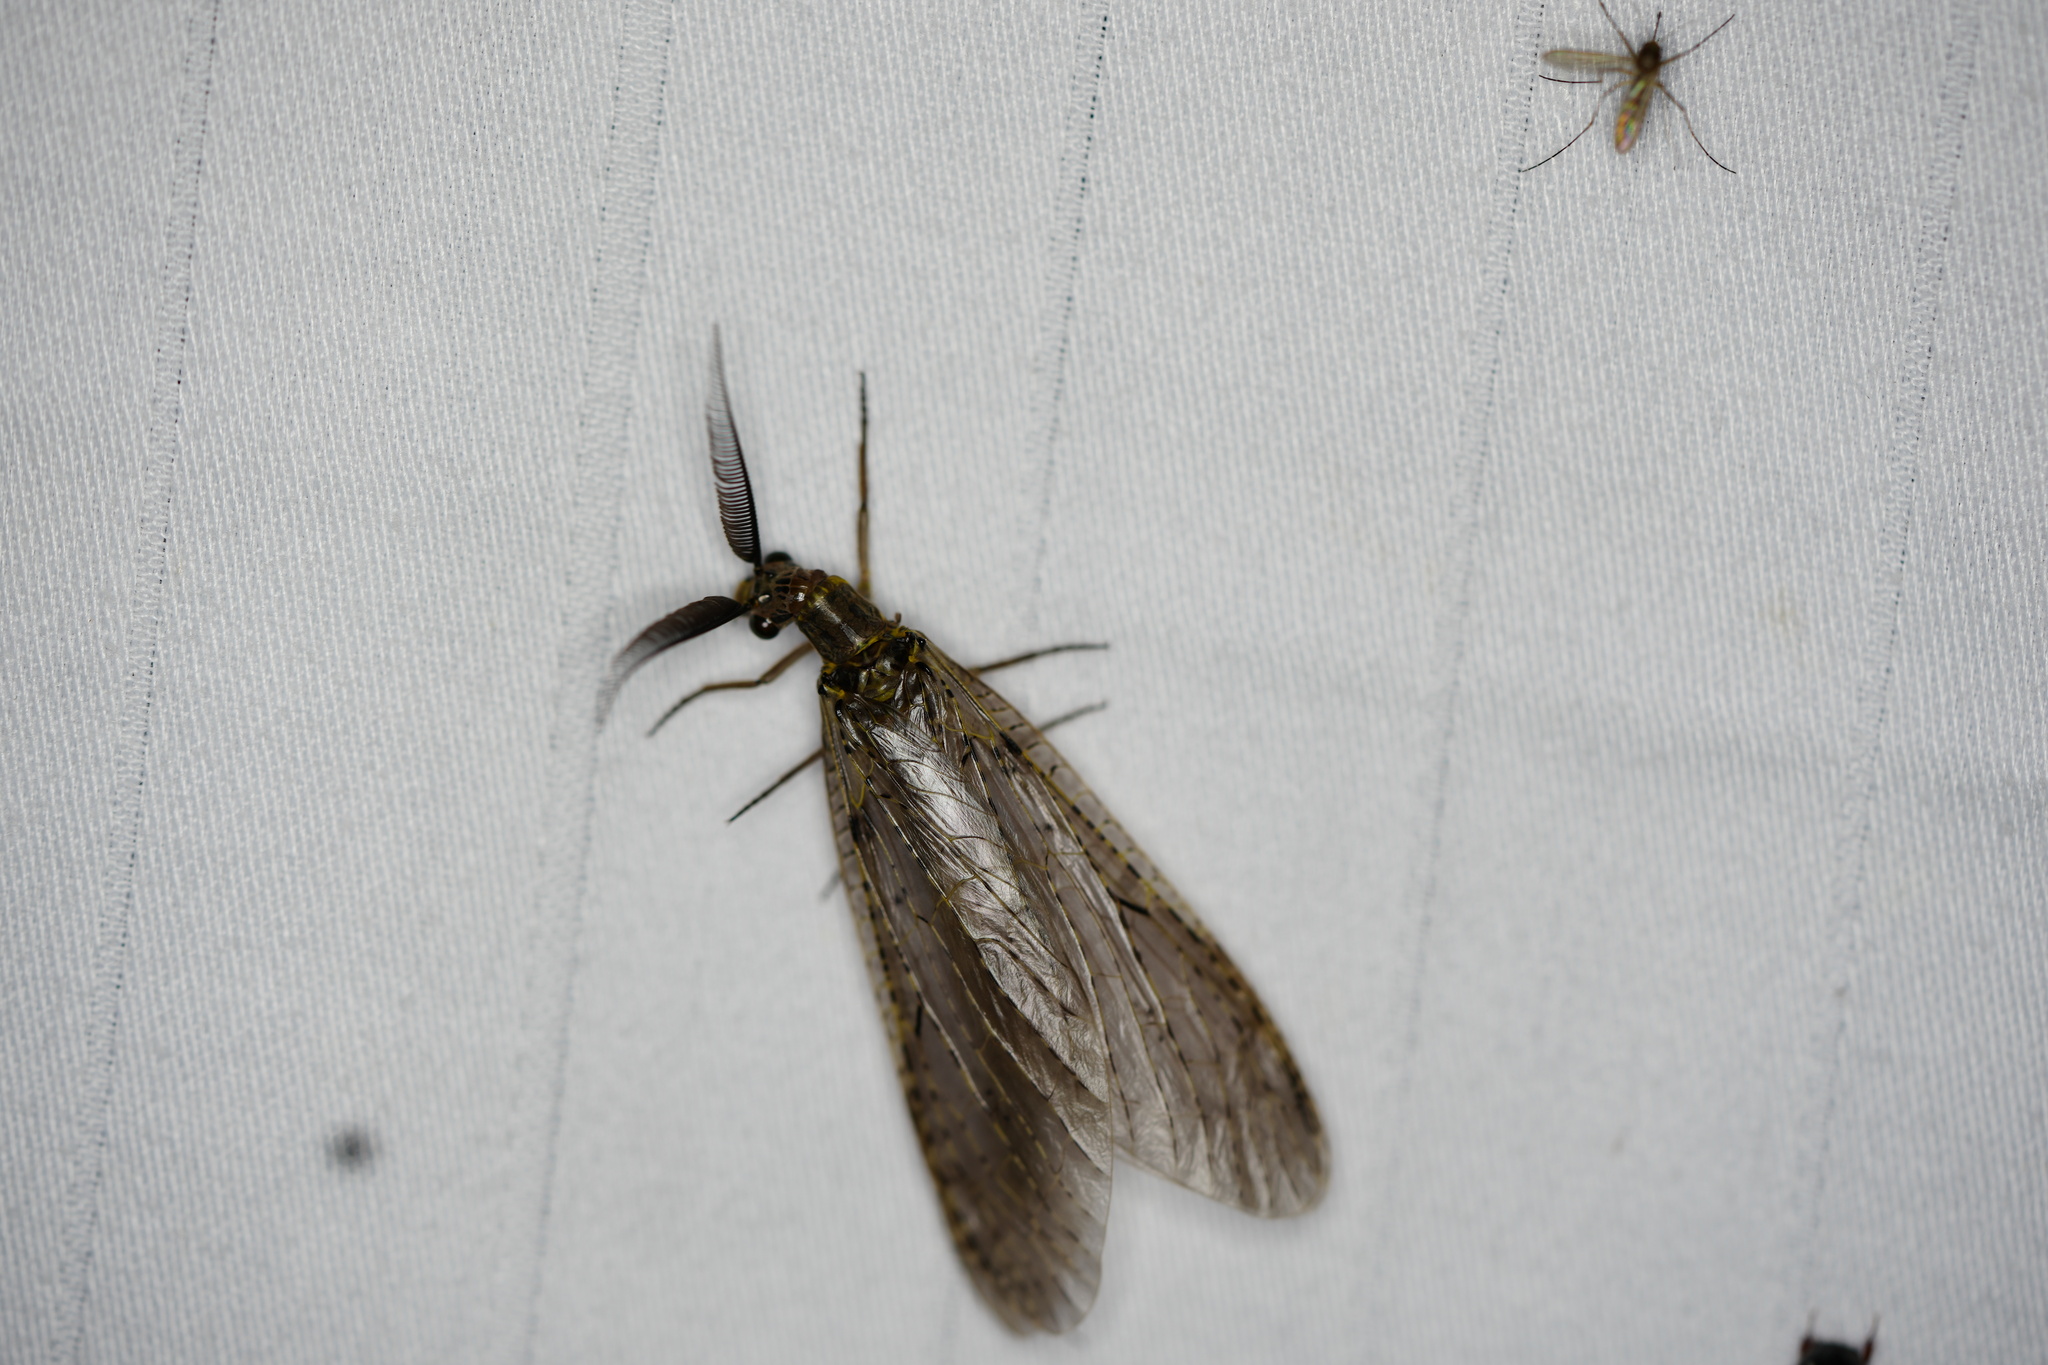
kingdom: Animalia
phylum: Arthropoda
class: Insecta
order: Megaloptera
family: Corydalidae
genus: Chauliodes
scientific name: Chauliodes rastricornis
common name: Spring fishfly
